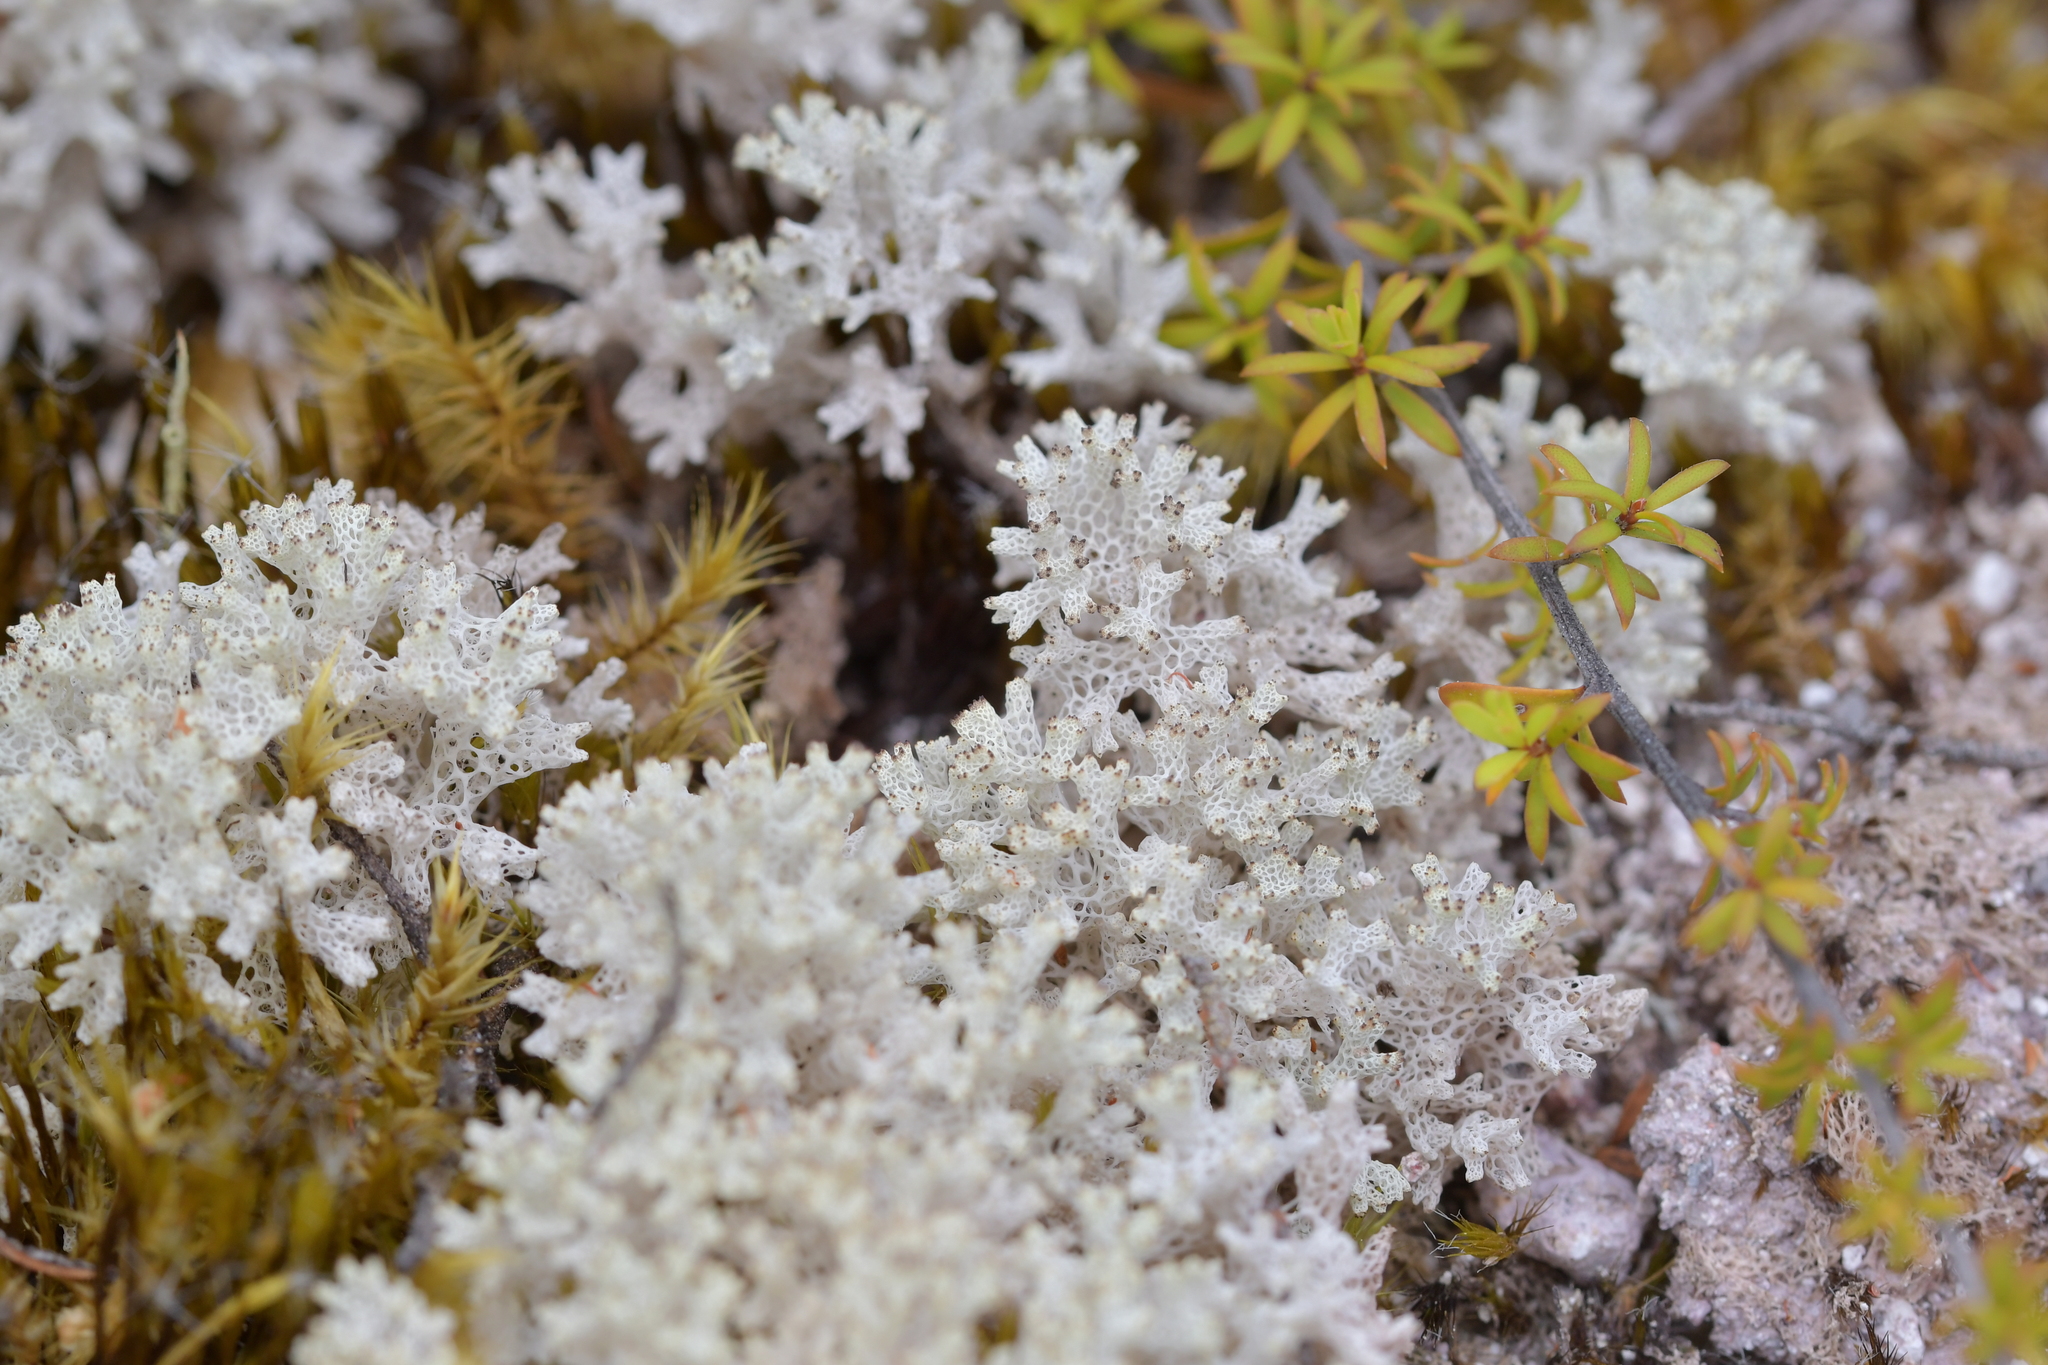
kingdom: Fungi
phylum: Ascomycota
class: Lecanoromycetes
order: Lecanorales
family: Cladoniaceae
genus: Pulchrocladia
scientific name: Pulchrocladia retipora
